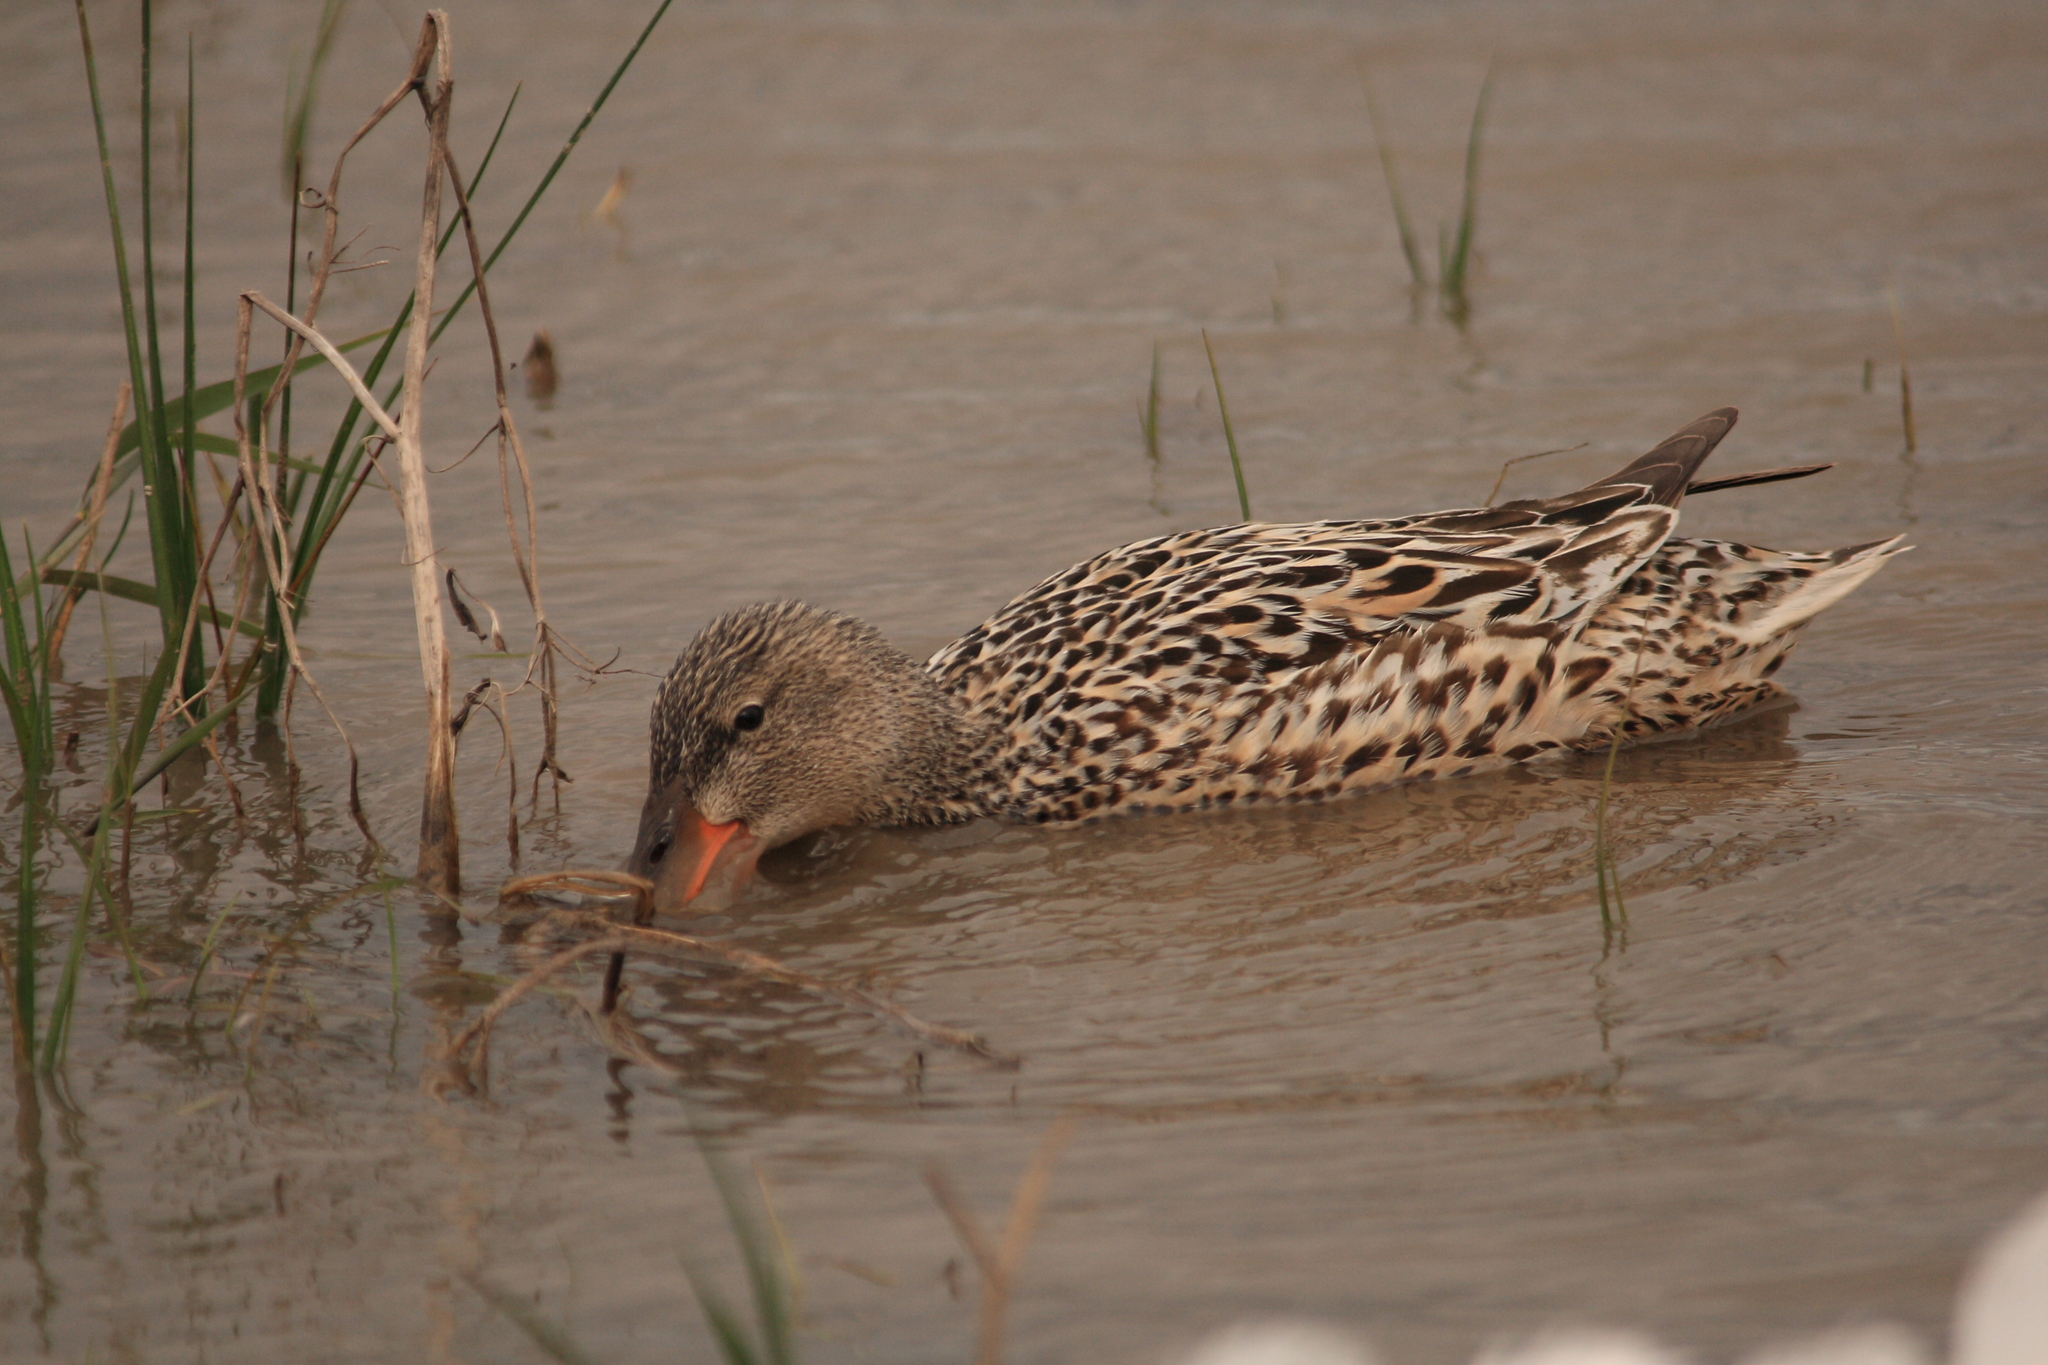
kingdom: Animalia
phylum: Chordata
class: Aves
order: Anseriformes
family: Anatidae
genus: Spatula
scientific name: Spatula clypeata
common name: Northern shoveler
